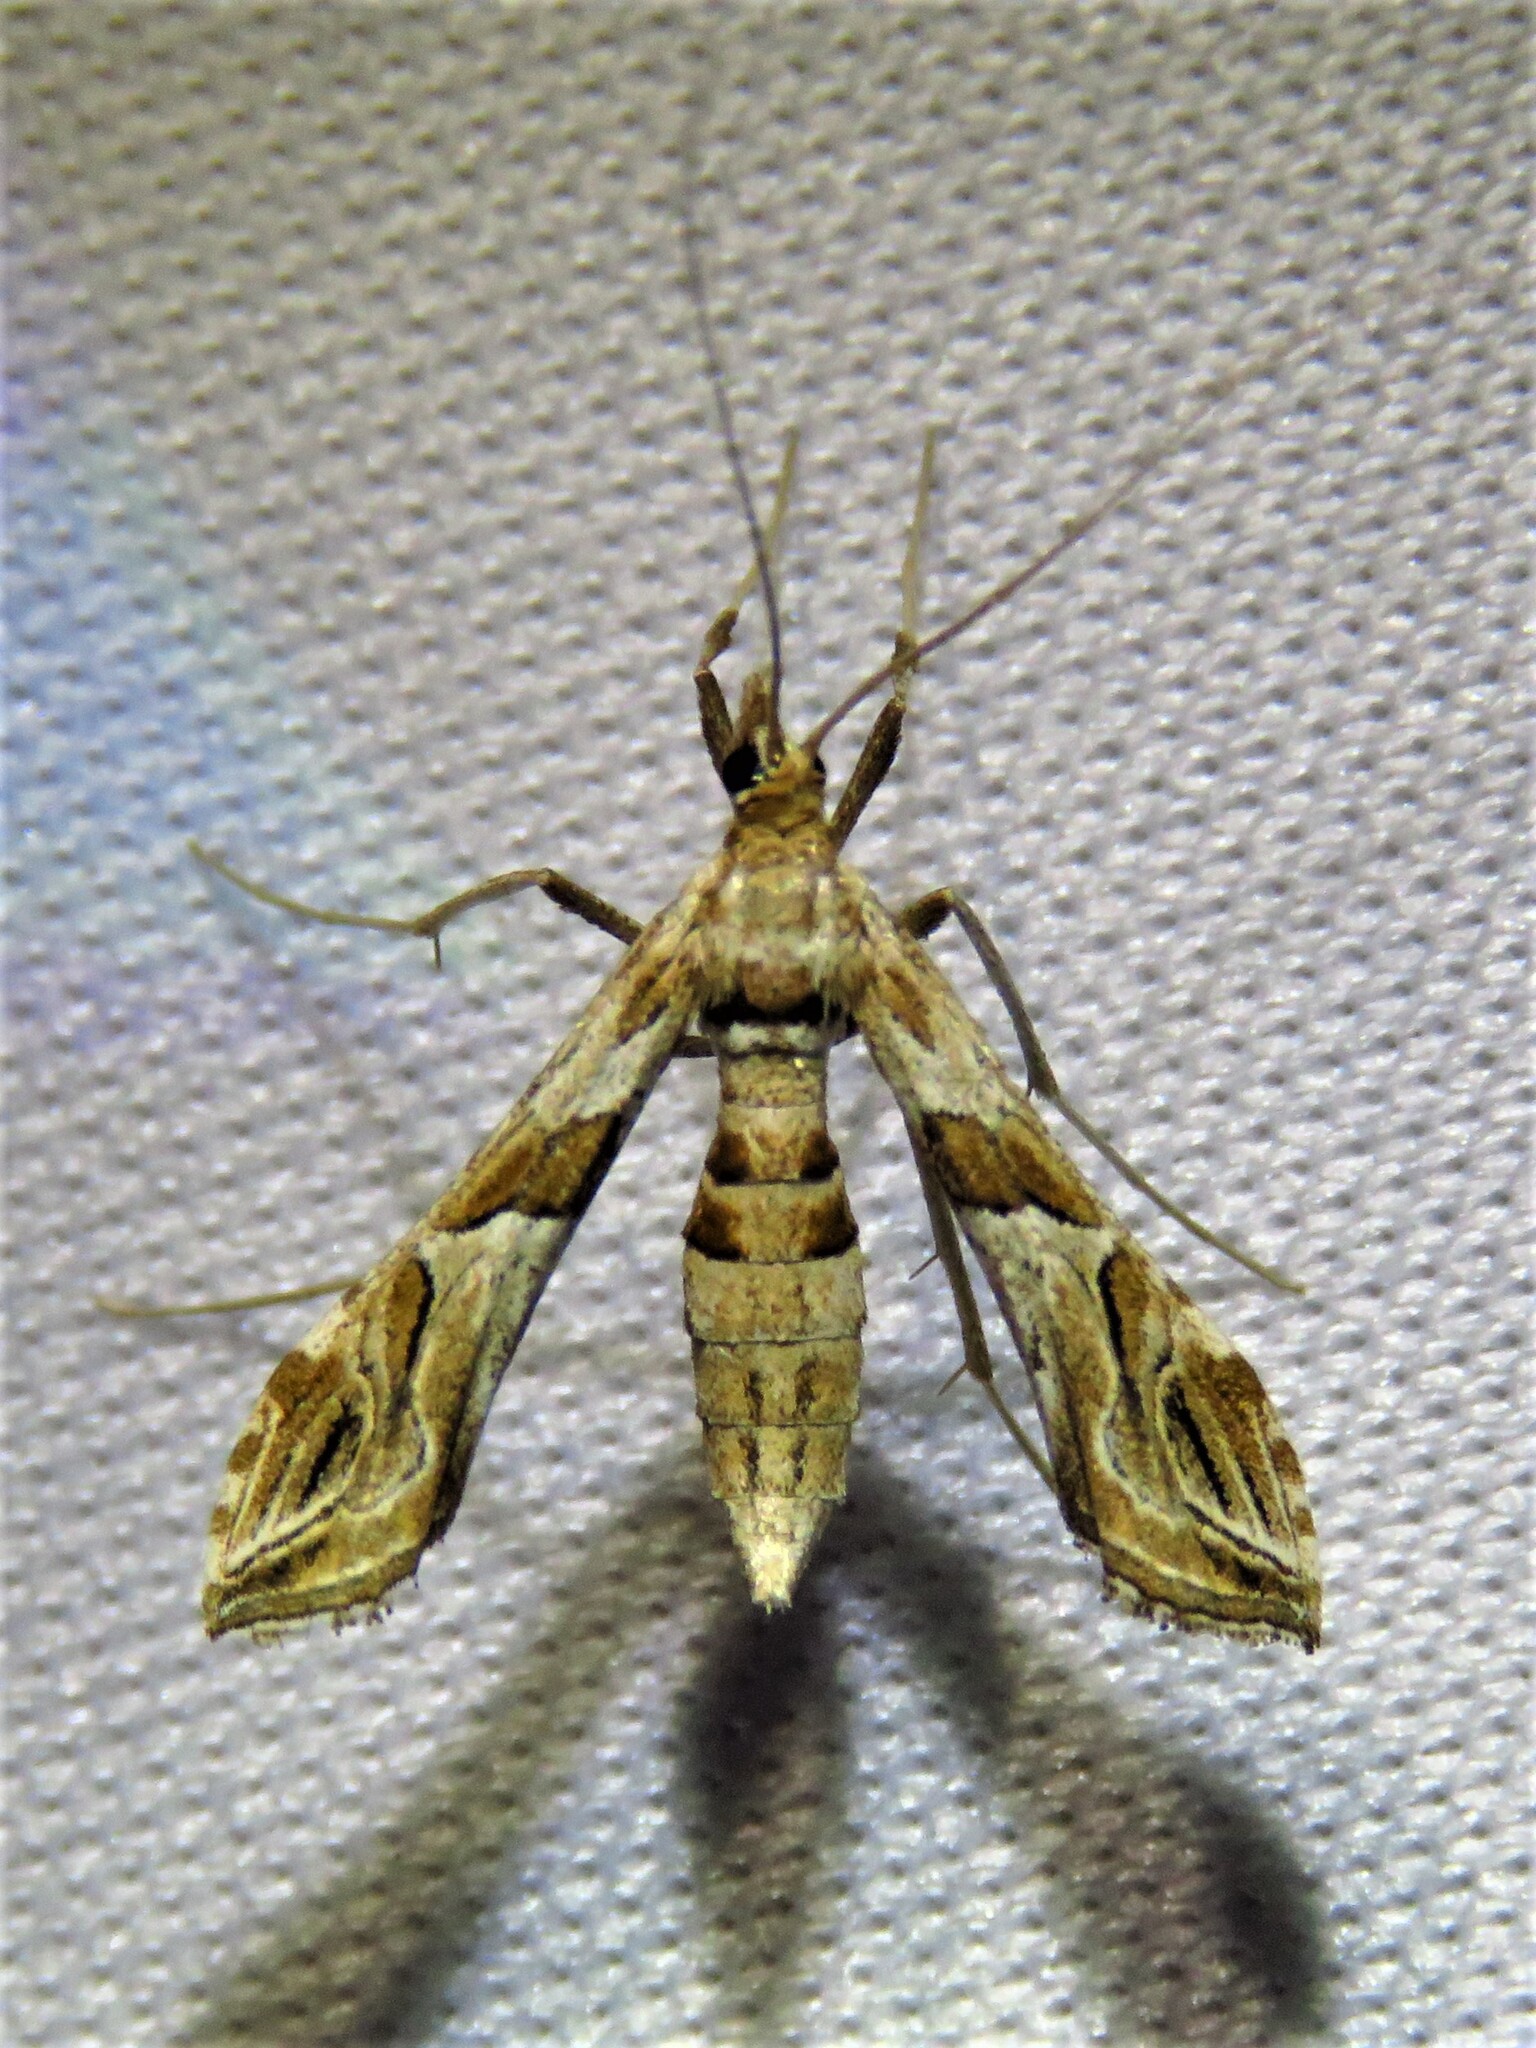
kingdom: Animalia
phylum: Arthropoda
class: Insecta
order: Lepidoptera
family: Crambidae
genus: Lineodes
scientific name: Lineodes interrupta
